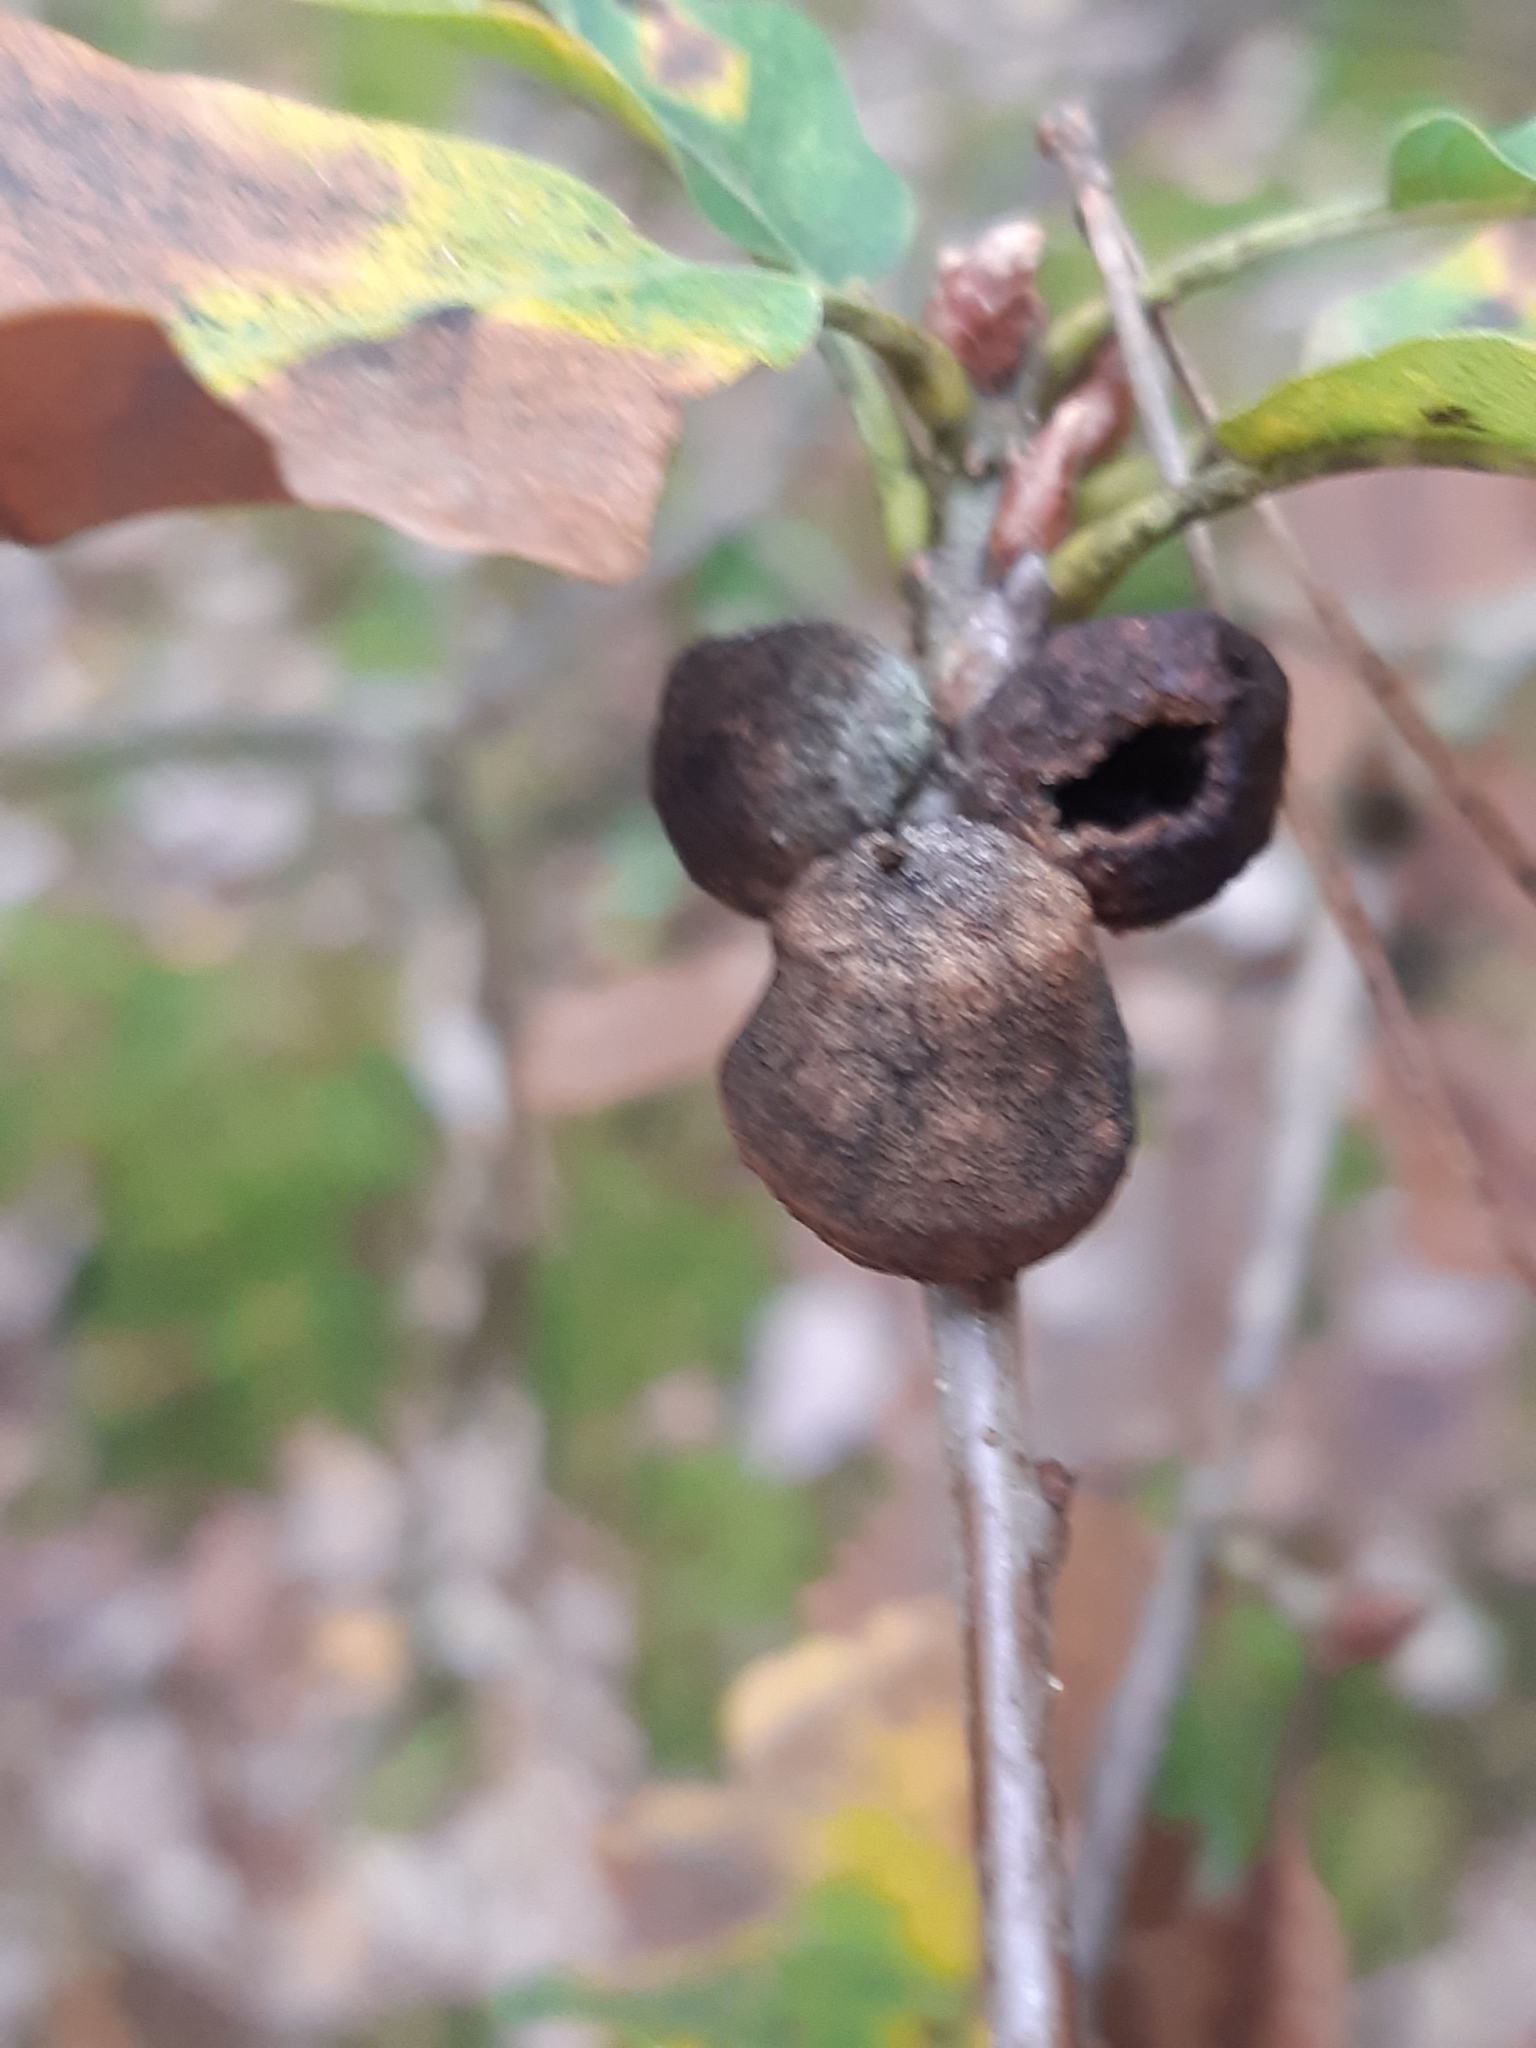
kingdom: Animalia
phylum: Arthropoda
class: Insecta
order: Hymenoptera
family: Cynipidae
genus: Andricus
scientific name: Andricus glutinosus
